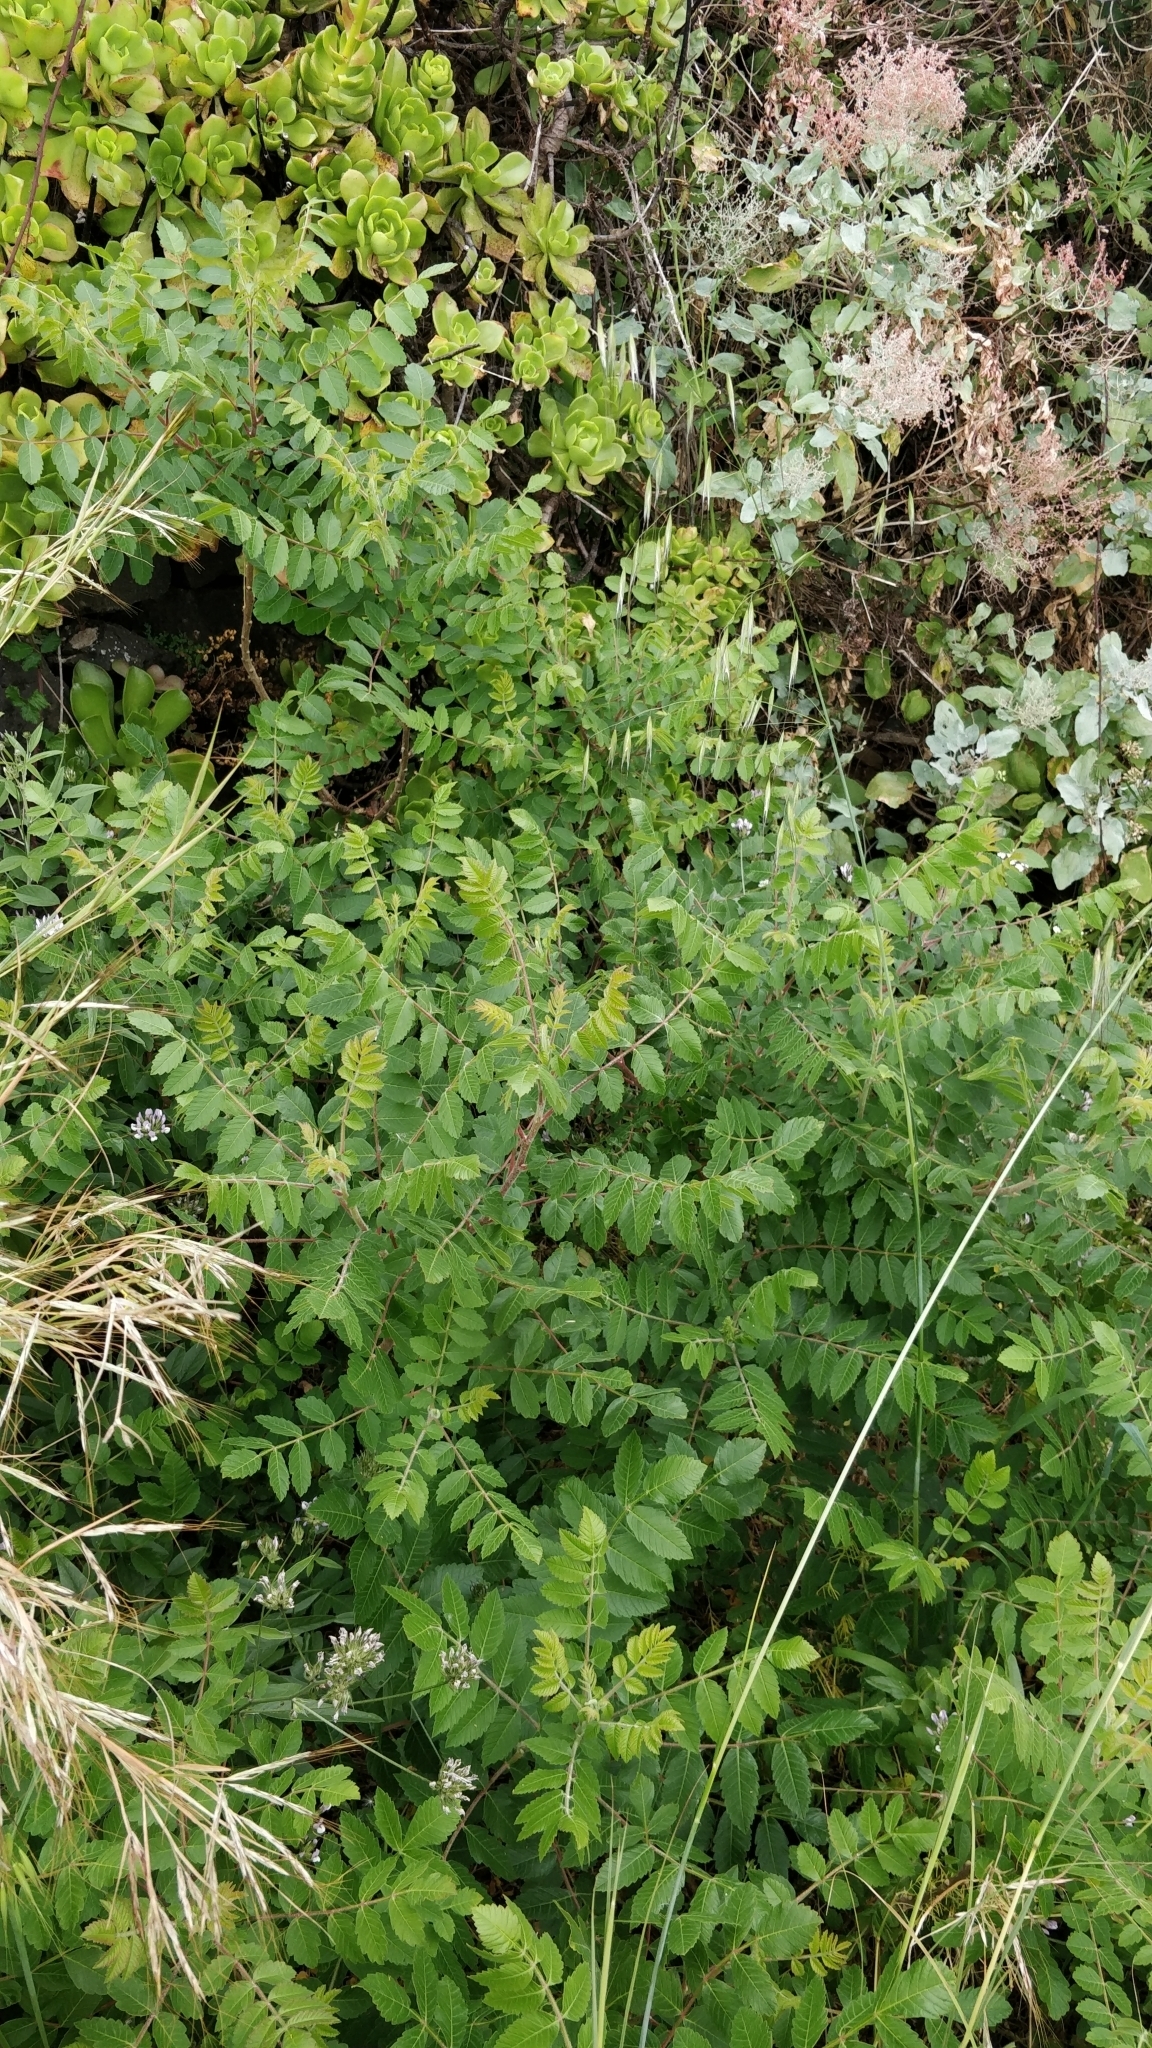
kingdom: Plantae
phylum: Tracheophyta
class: Magnoliopsida
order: Sapindales
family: Anacardiaceae
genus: Rhus
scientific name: Rhus coriaria
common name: Tanner's sumach
